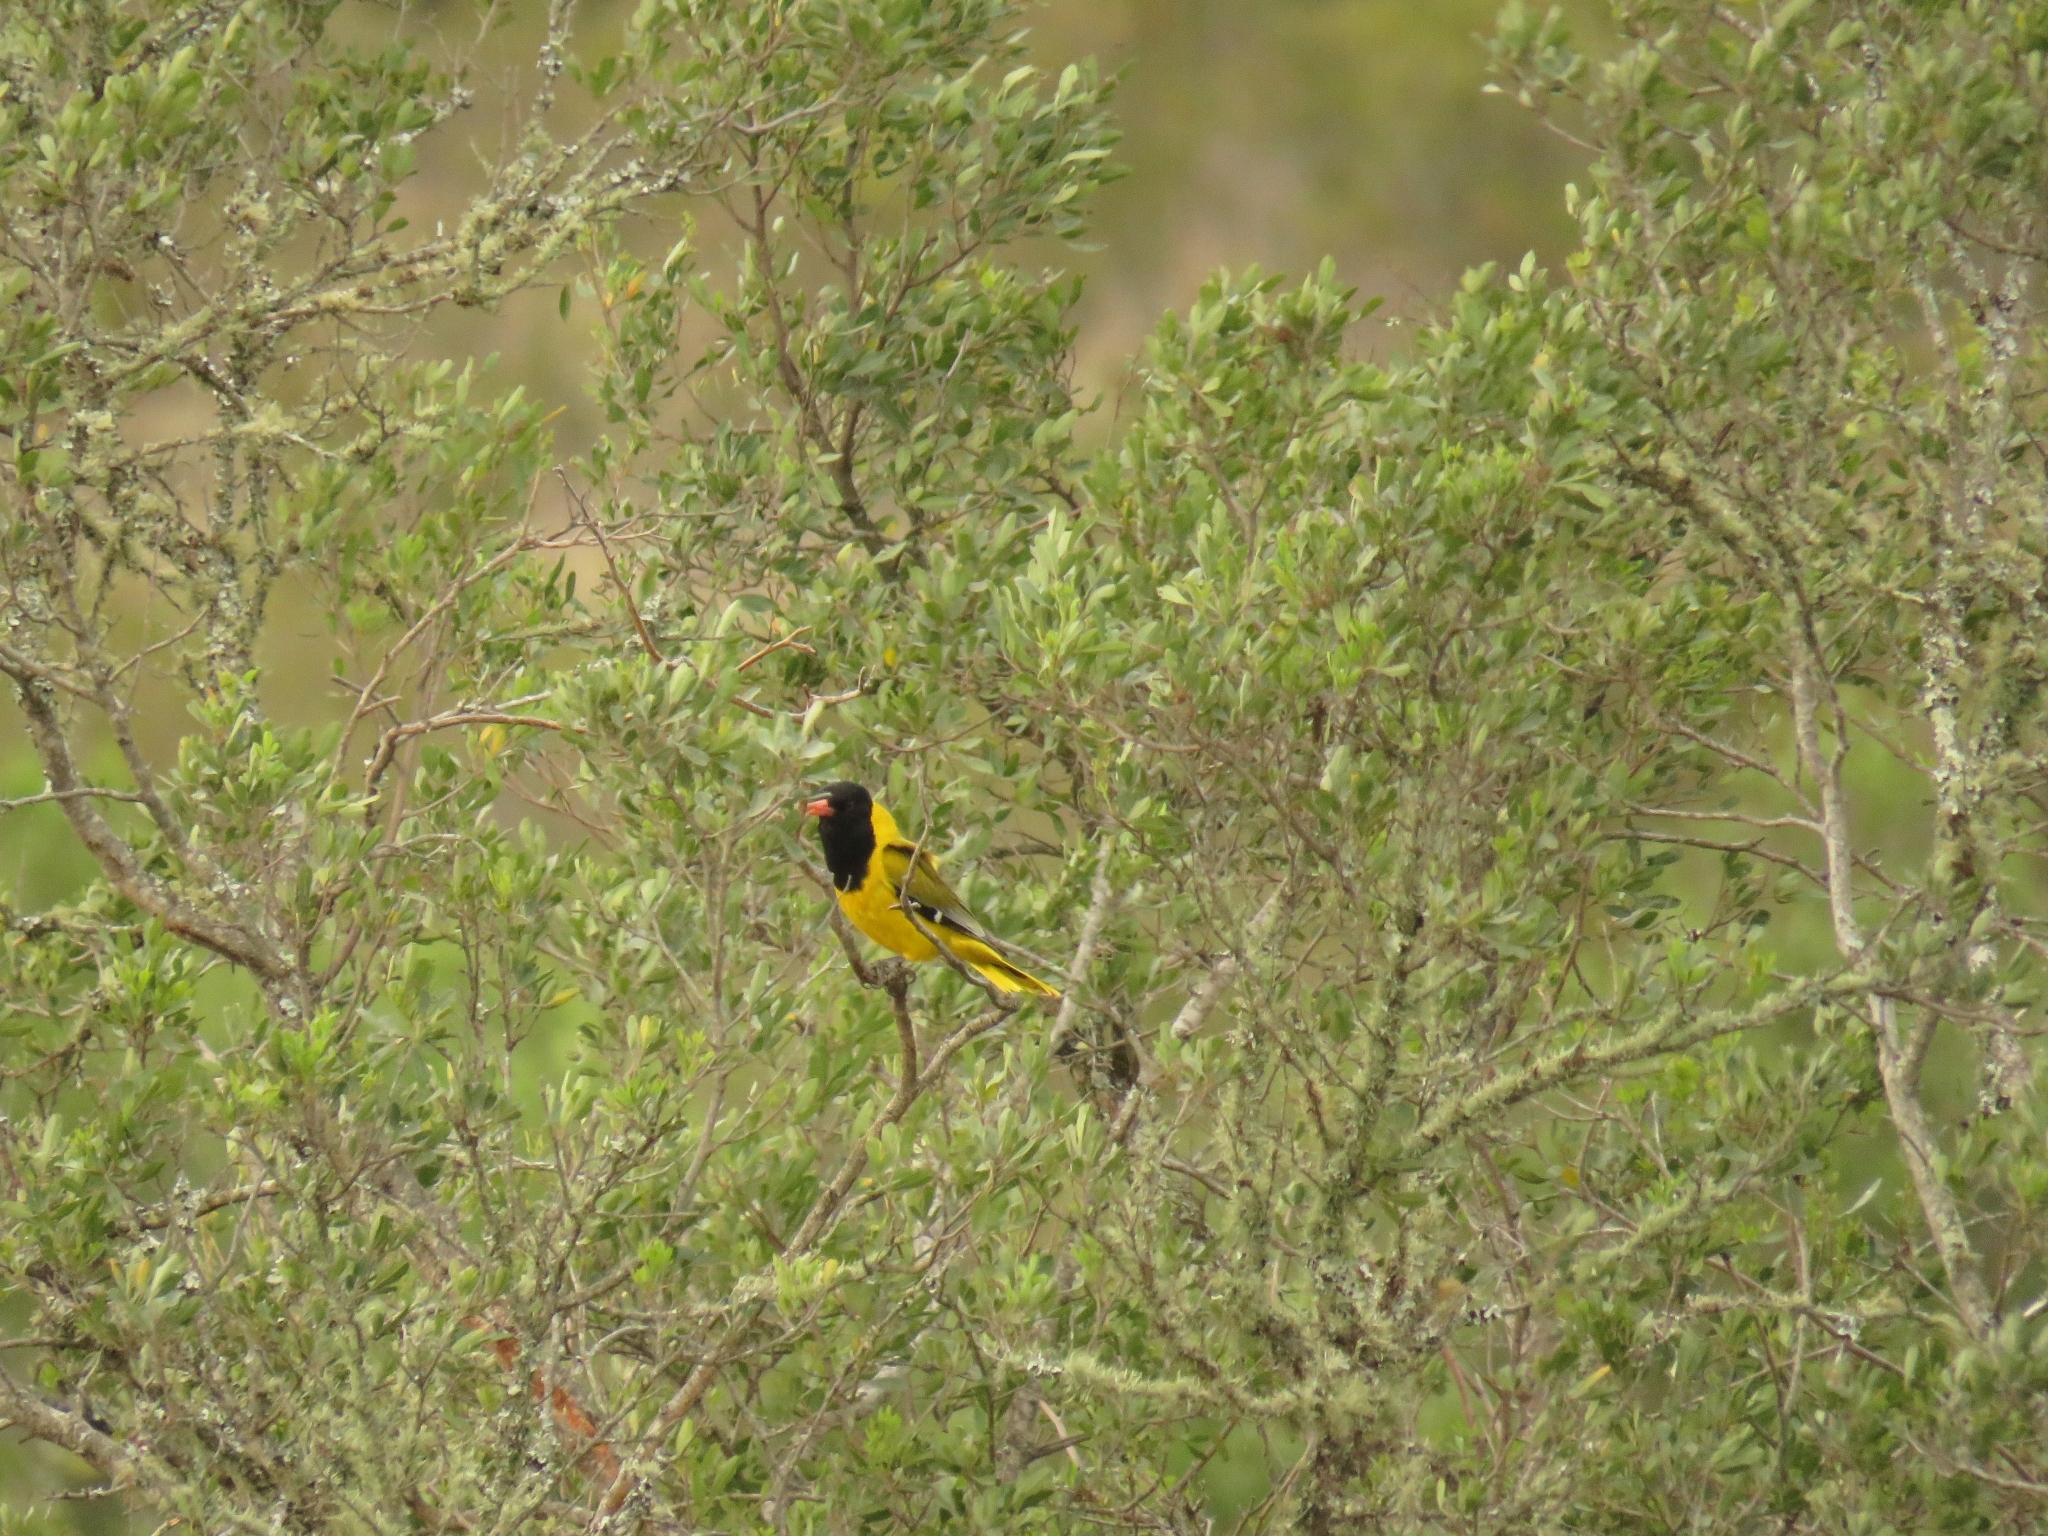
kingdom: Animalia
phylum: Chordata
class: Aves
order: Passeriformes
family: Oriolidae
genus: Oriolus
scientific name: Oriolus larvatus
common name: Black-headed oriole
